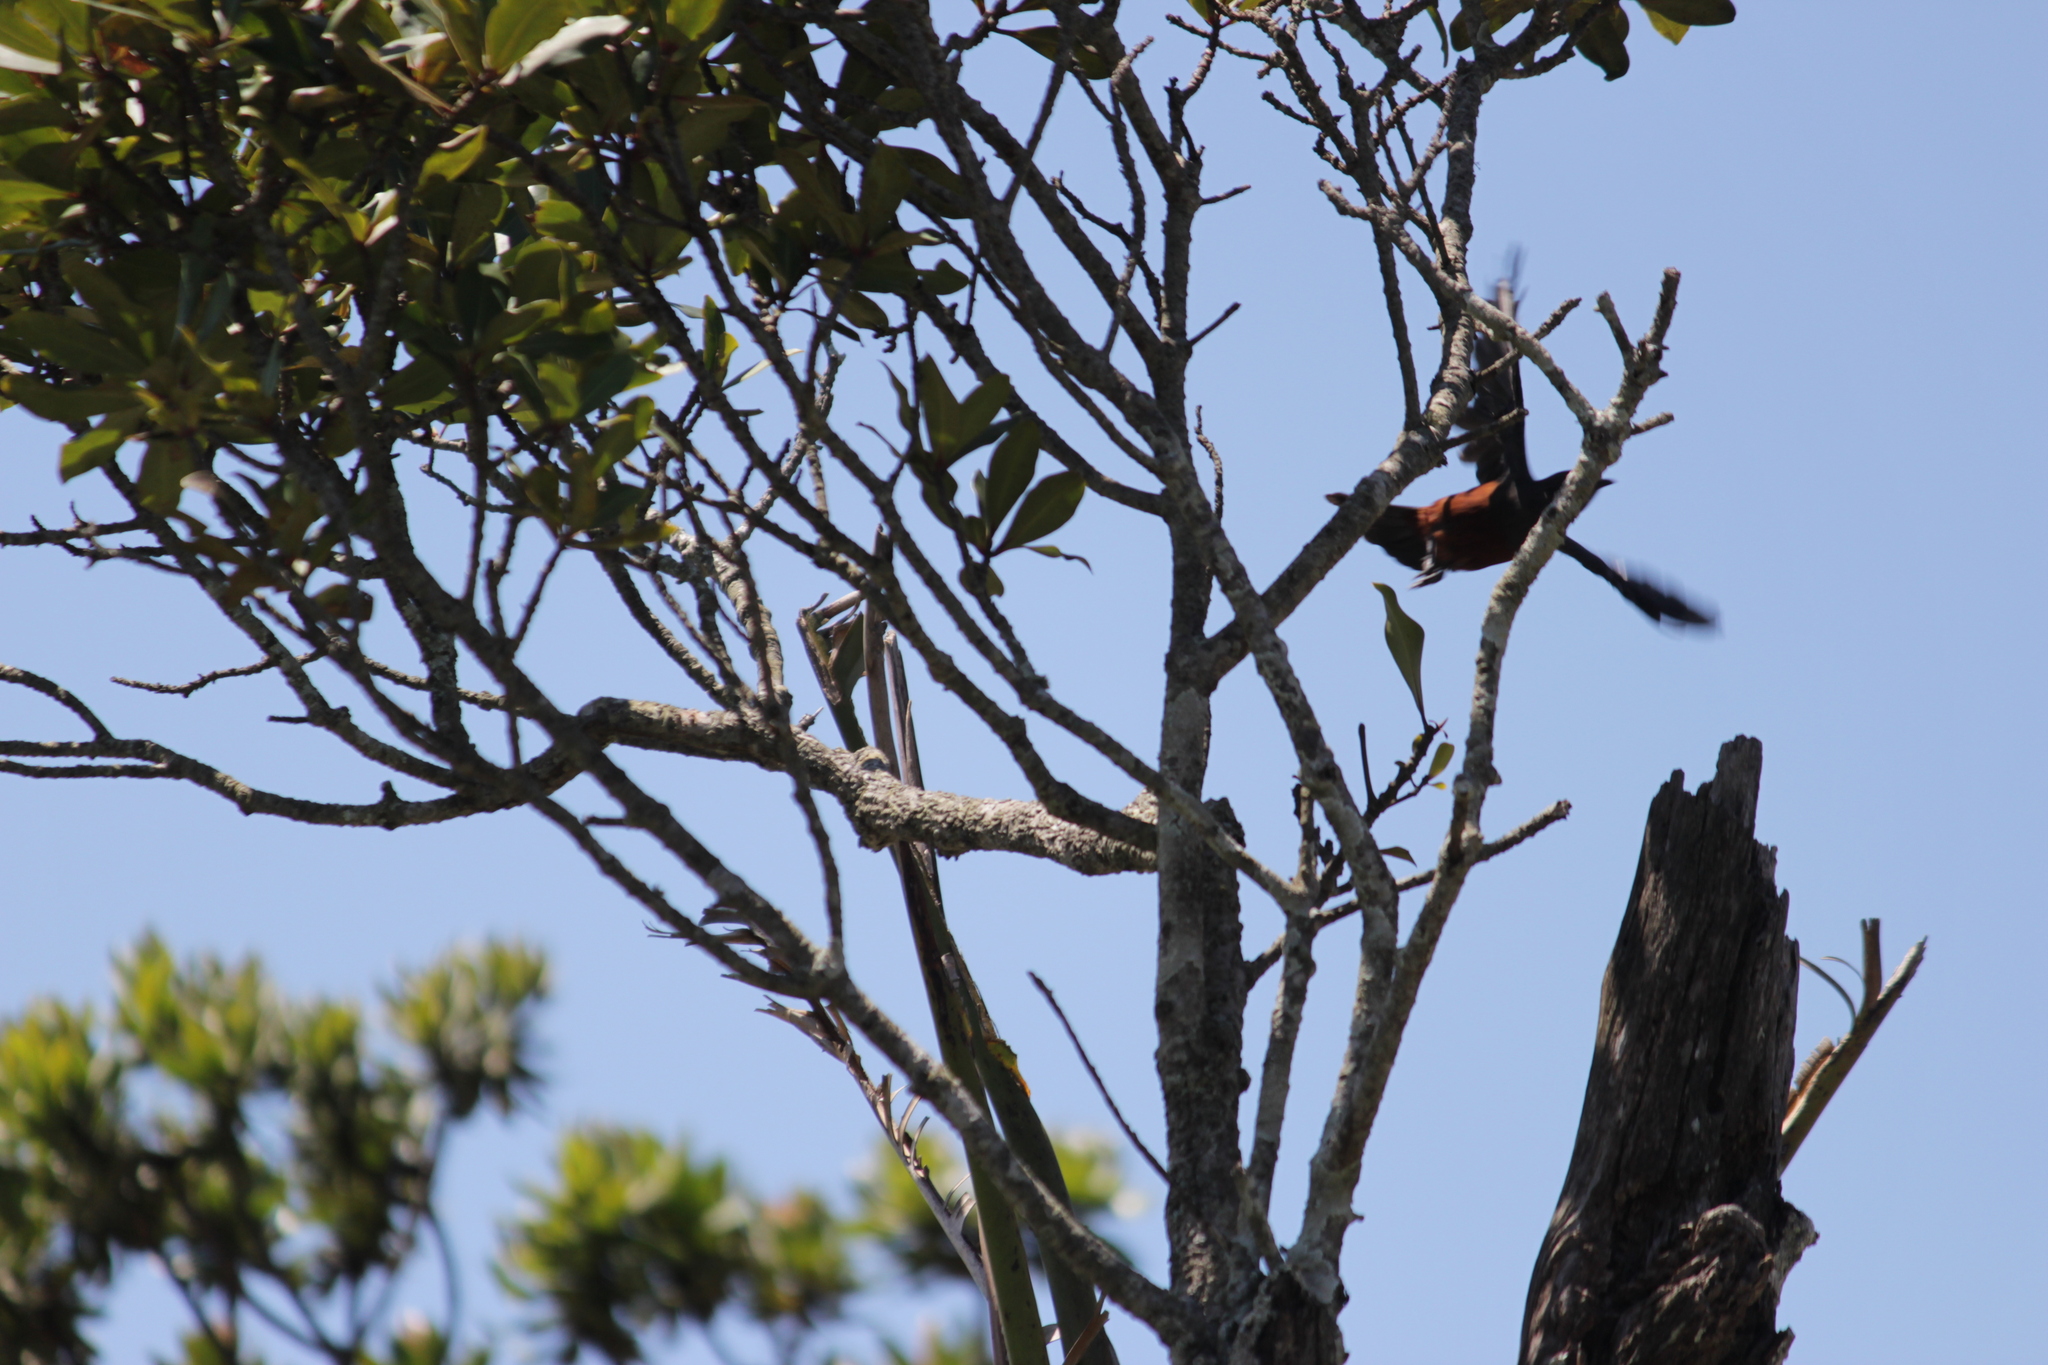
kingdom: Animalia
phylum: Chordata
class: Aves
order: Passeriformes
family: Muscicapidae
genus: Thamnolaea
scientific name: Thamnolaea cinnamomeiventris
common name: Mocking cliff chat
